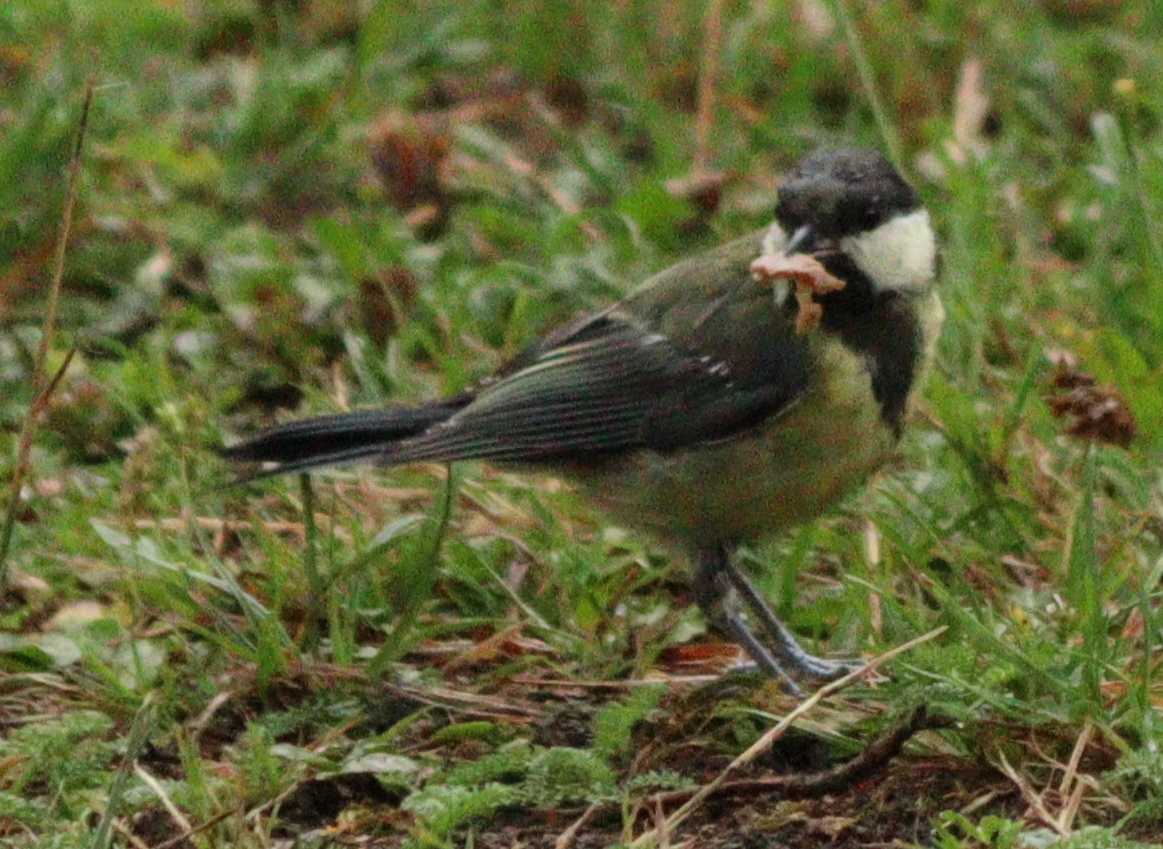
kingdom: Animalia
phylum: Chordata
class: Aves
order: Passeriformes
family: Paridae
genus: Parus
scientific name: Parus major
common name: Great tit
